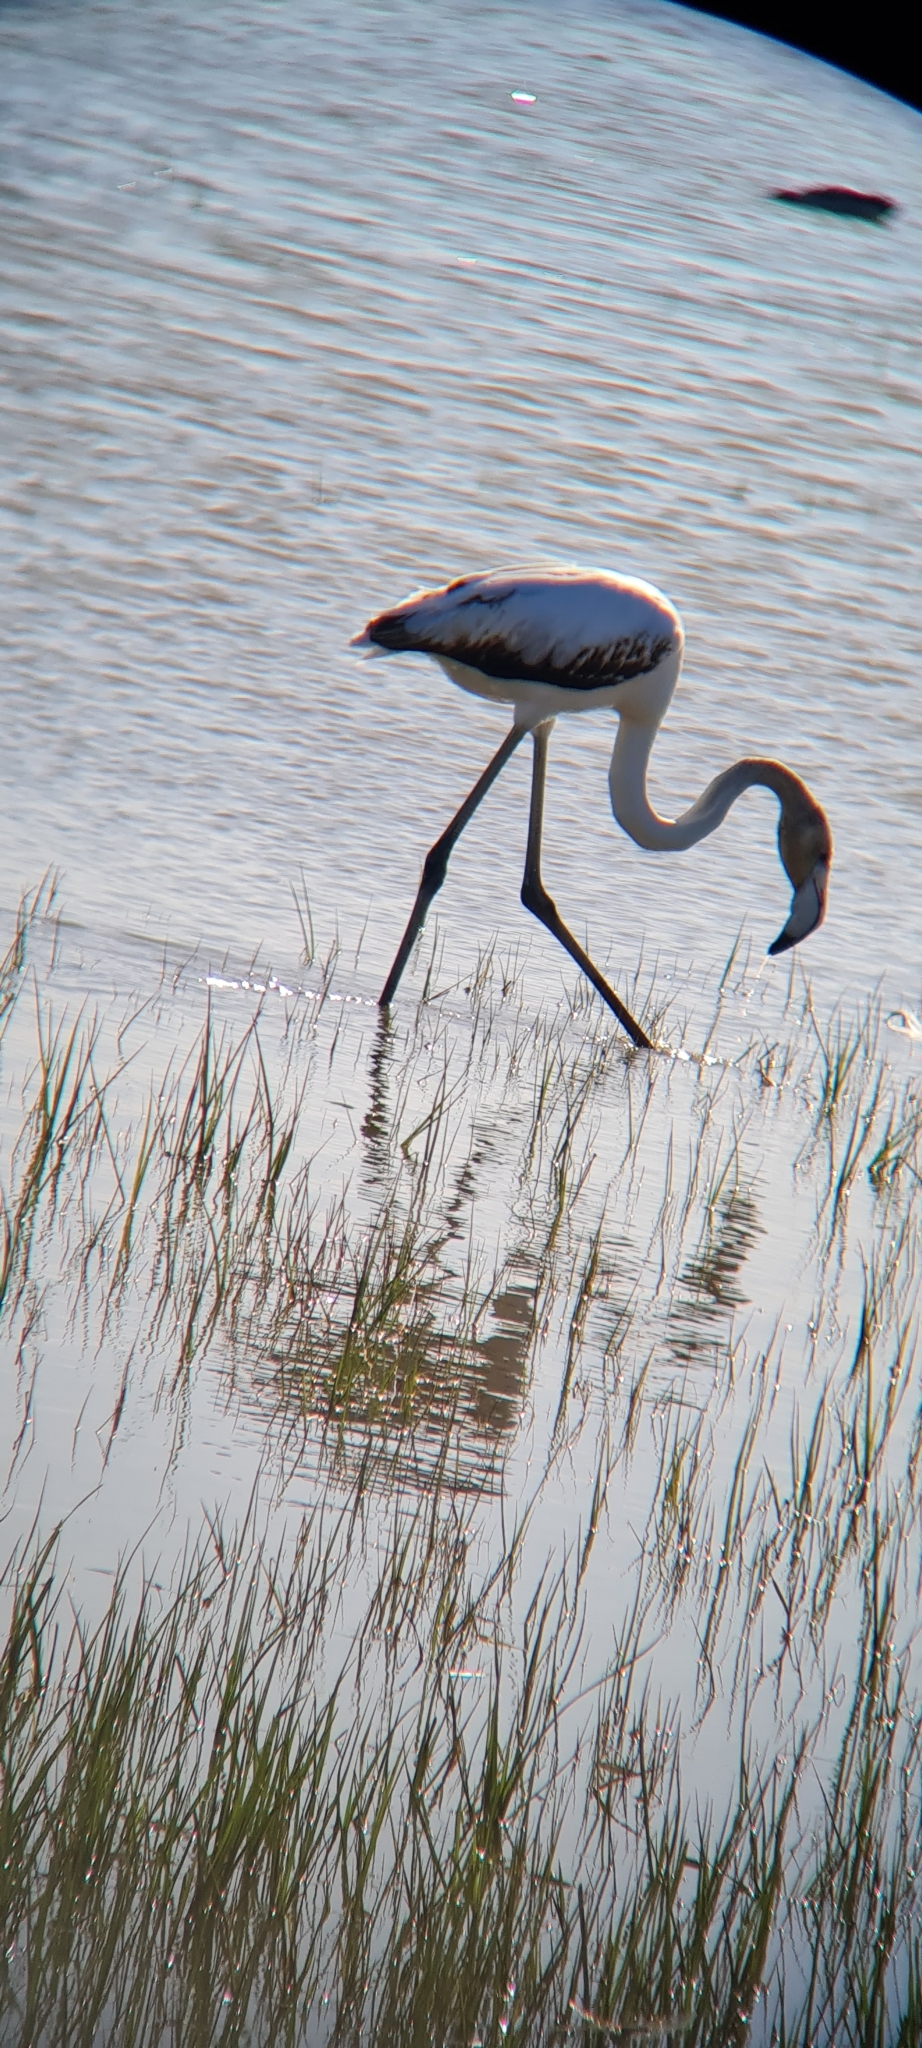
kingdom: Animalia
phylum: Chordata
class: Aves
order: Phoenicopteriformes
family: Phoenicopteridae
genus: Phoenicopterus
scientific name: Phoenicopterus roseus
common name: Greater flamingo
